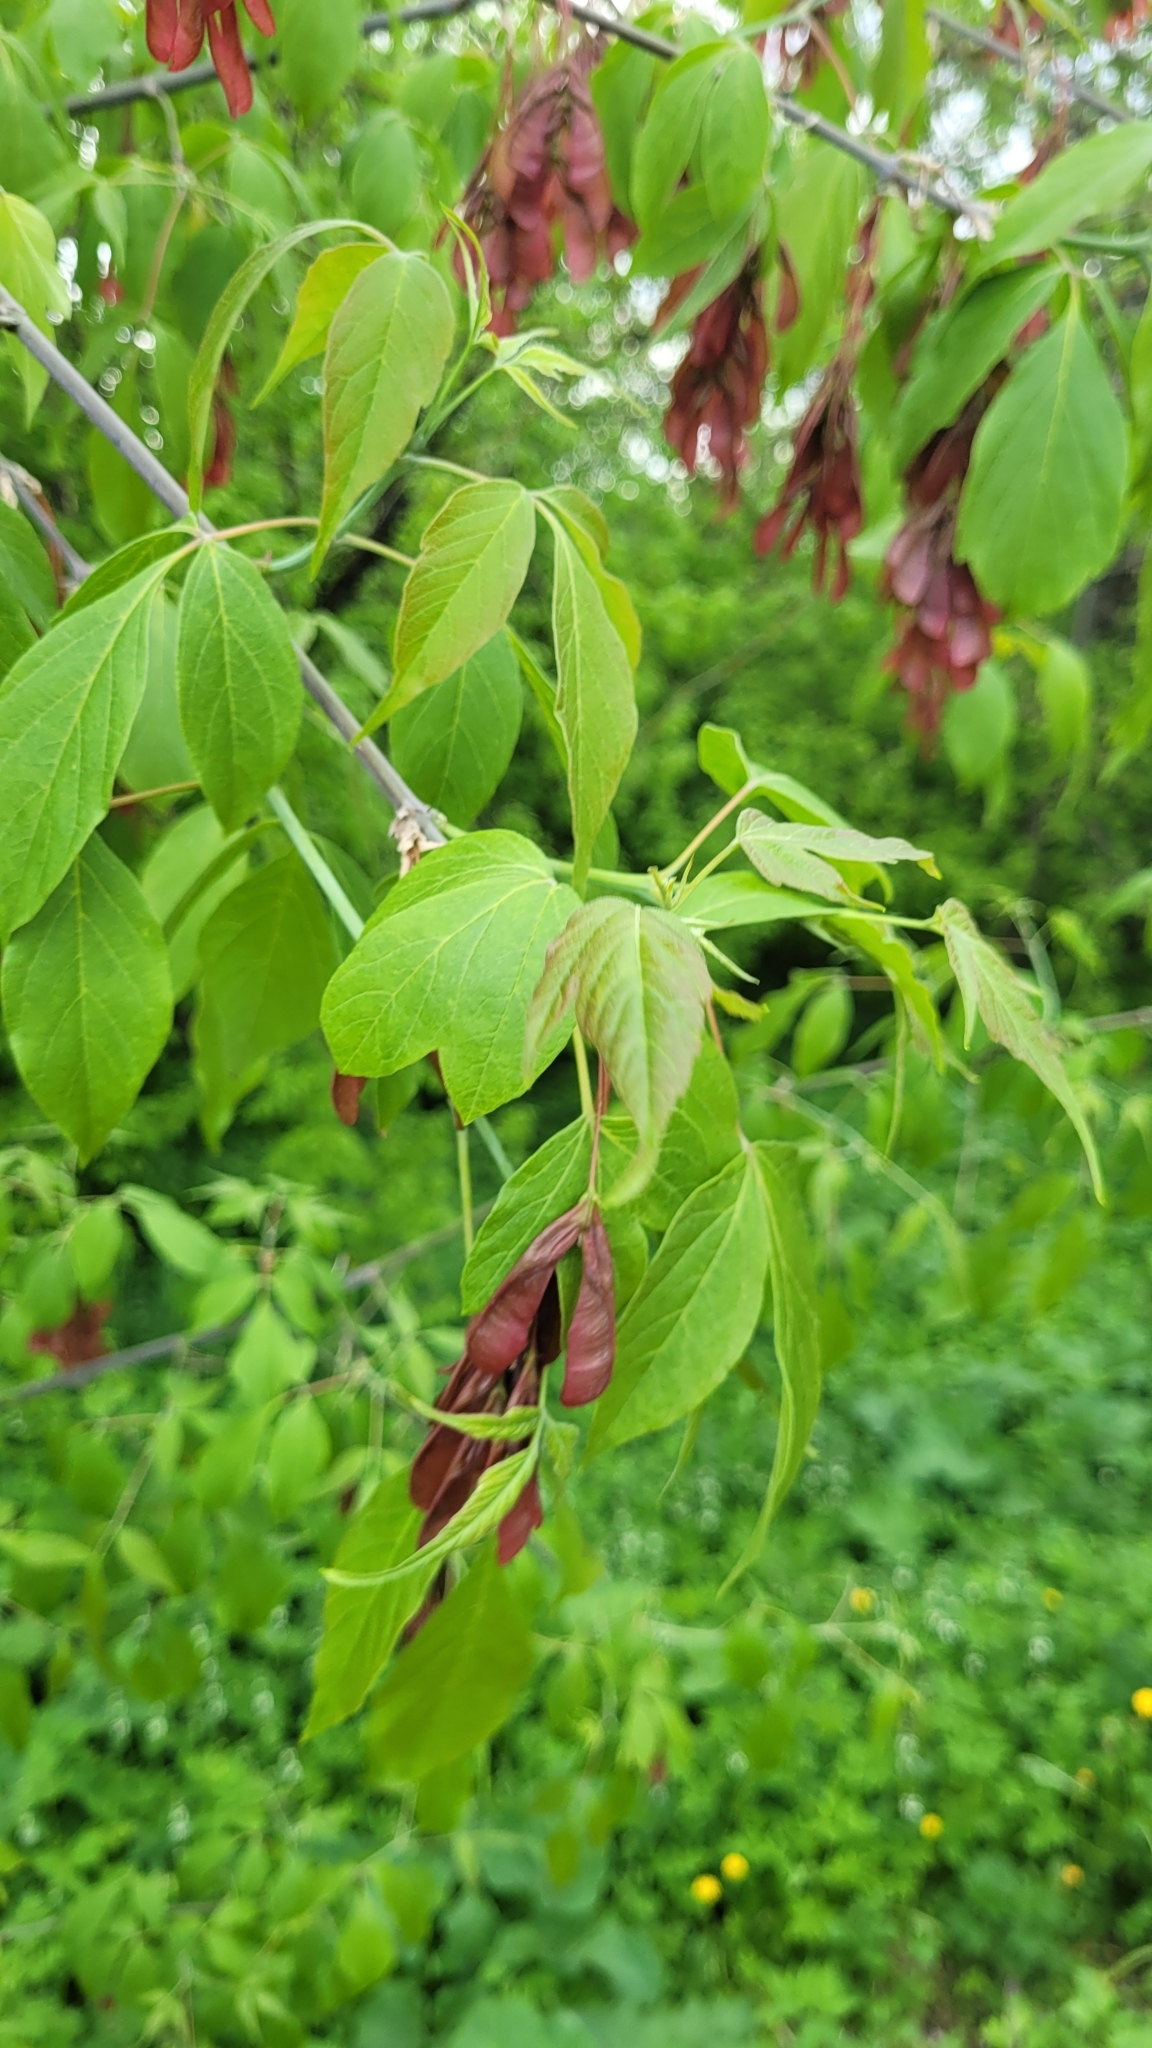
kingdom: Plantae
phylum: Tracheophyta
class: Magnoliopsida
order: Sapindales
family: Sapindaceae
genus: Acer
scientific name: Acer negundo
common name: Ashleaf maple
